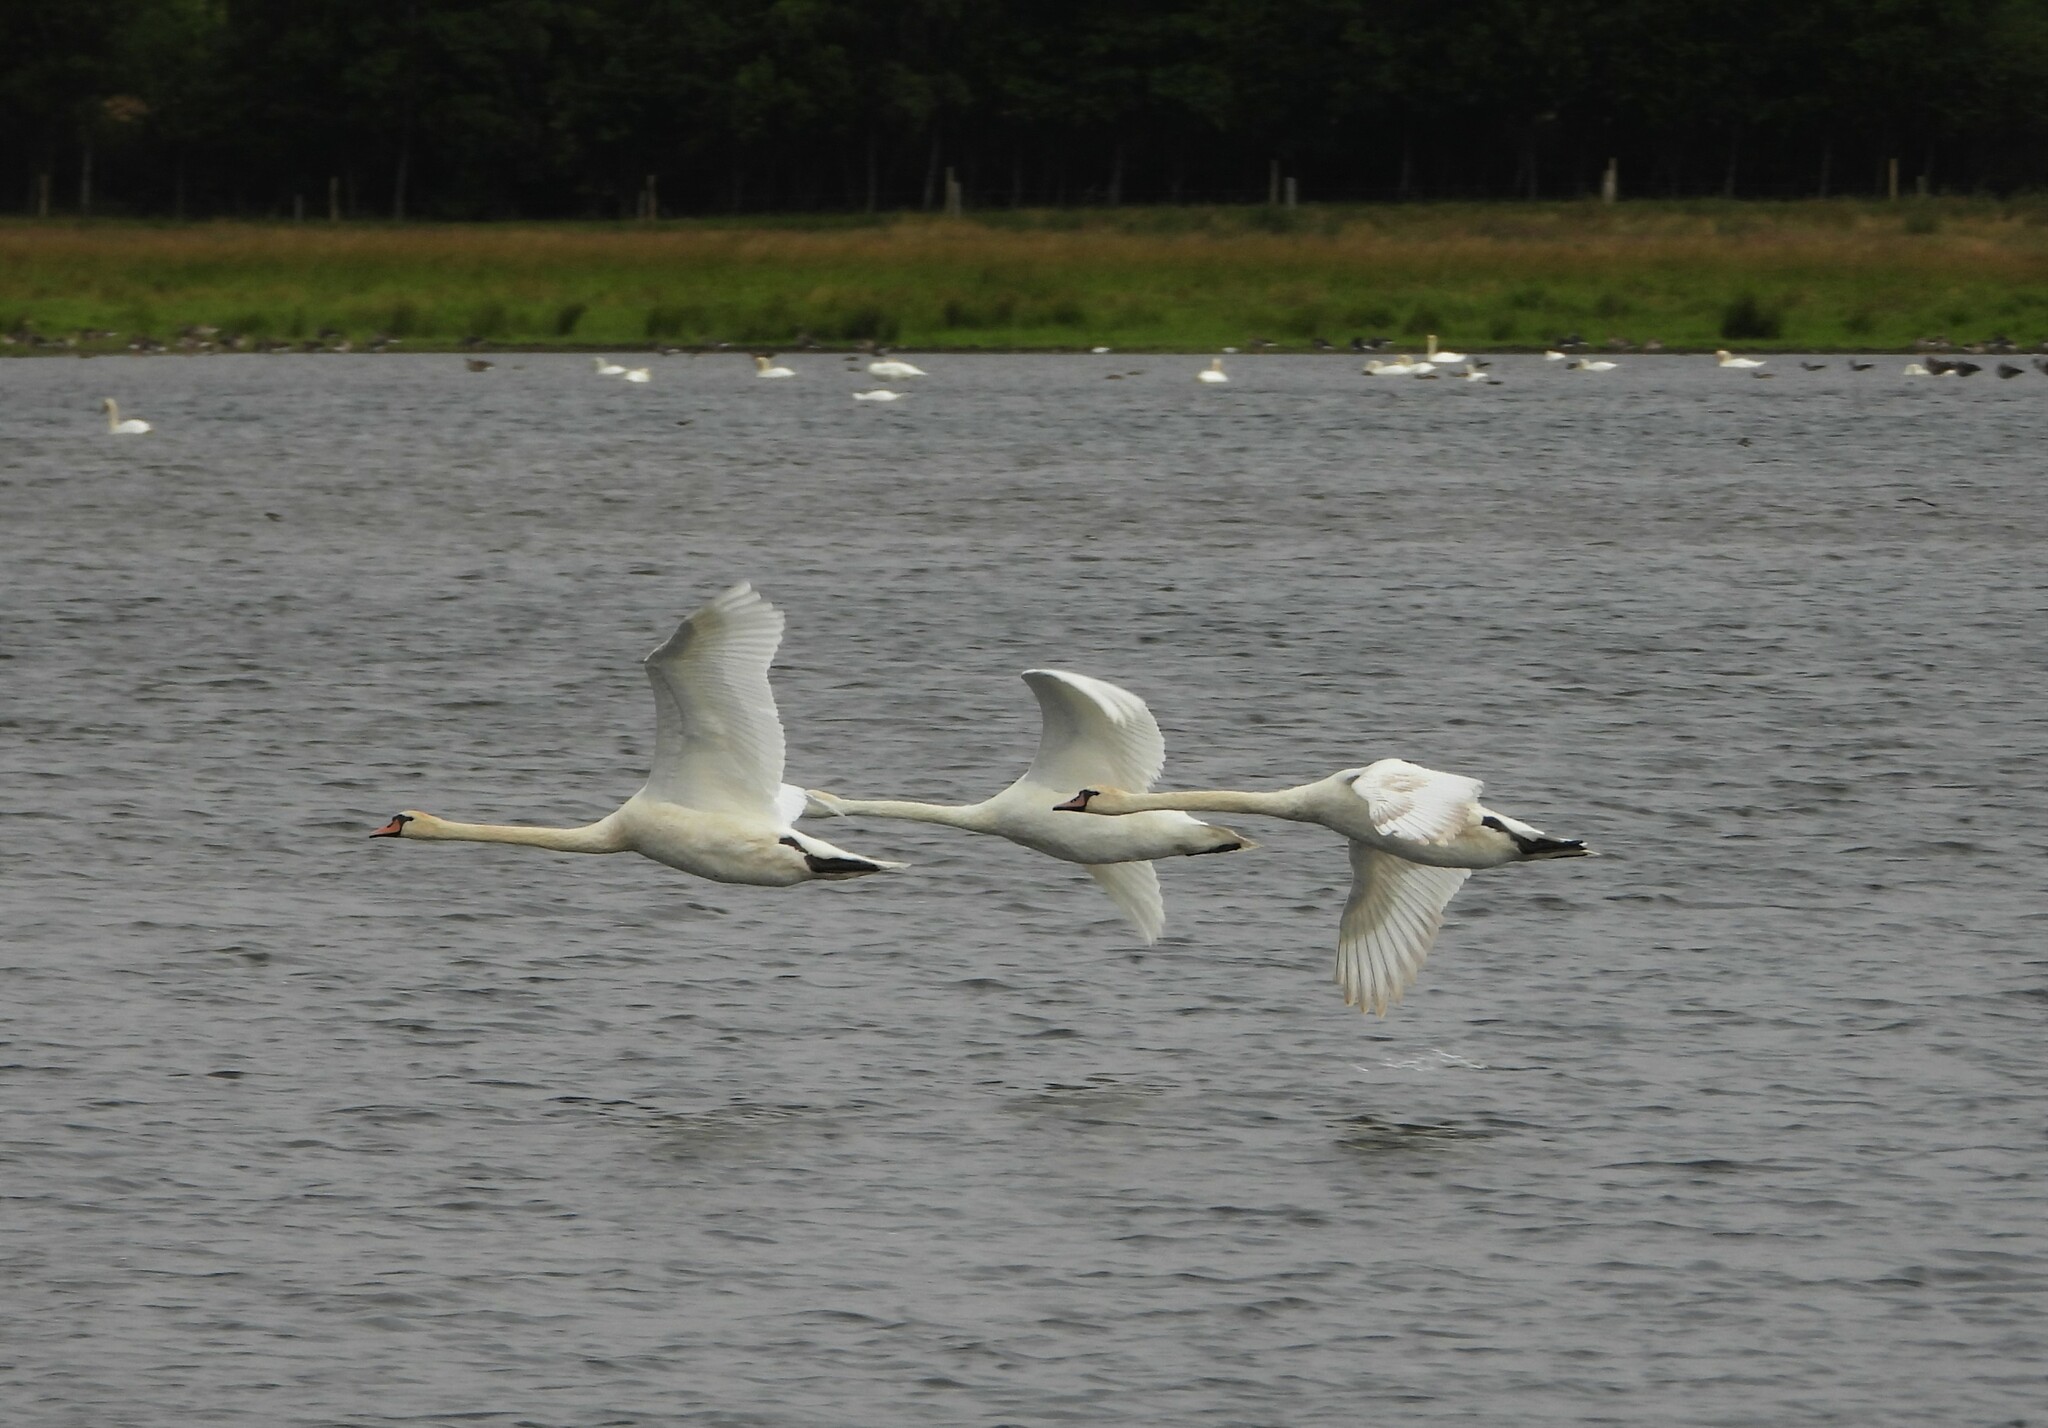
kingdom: Animalia
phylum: Chordata
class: Aves
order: Anseriformes
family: Anatidae
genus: Cygnus
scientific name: Cygnus olor
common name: Mute swan
